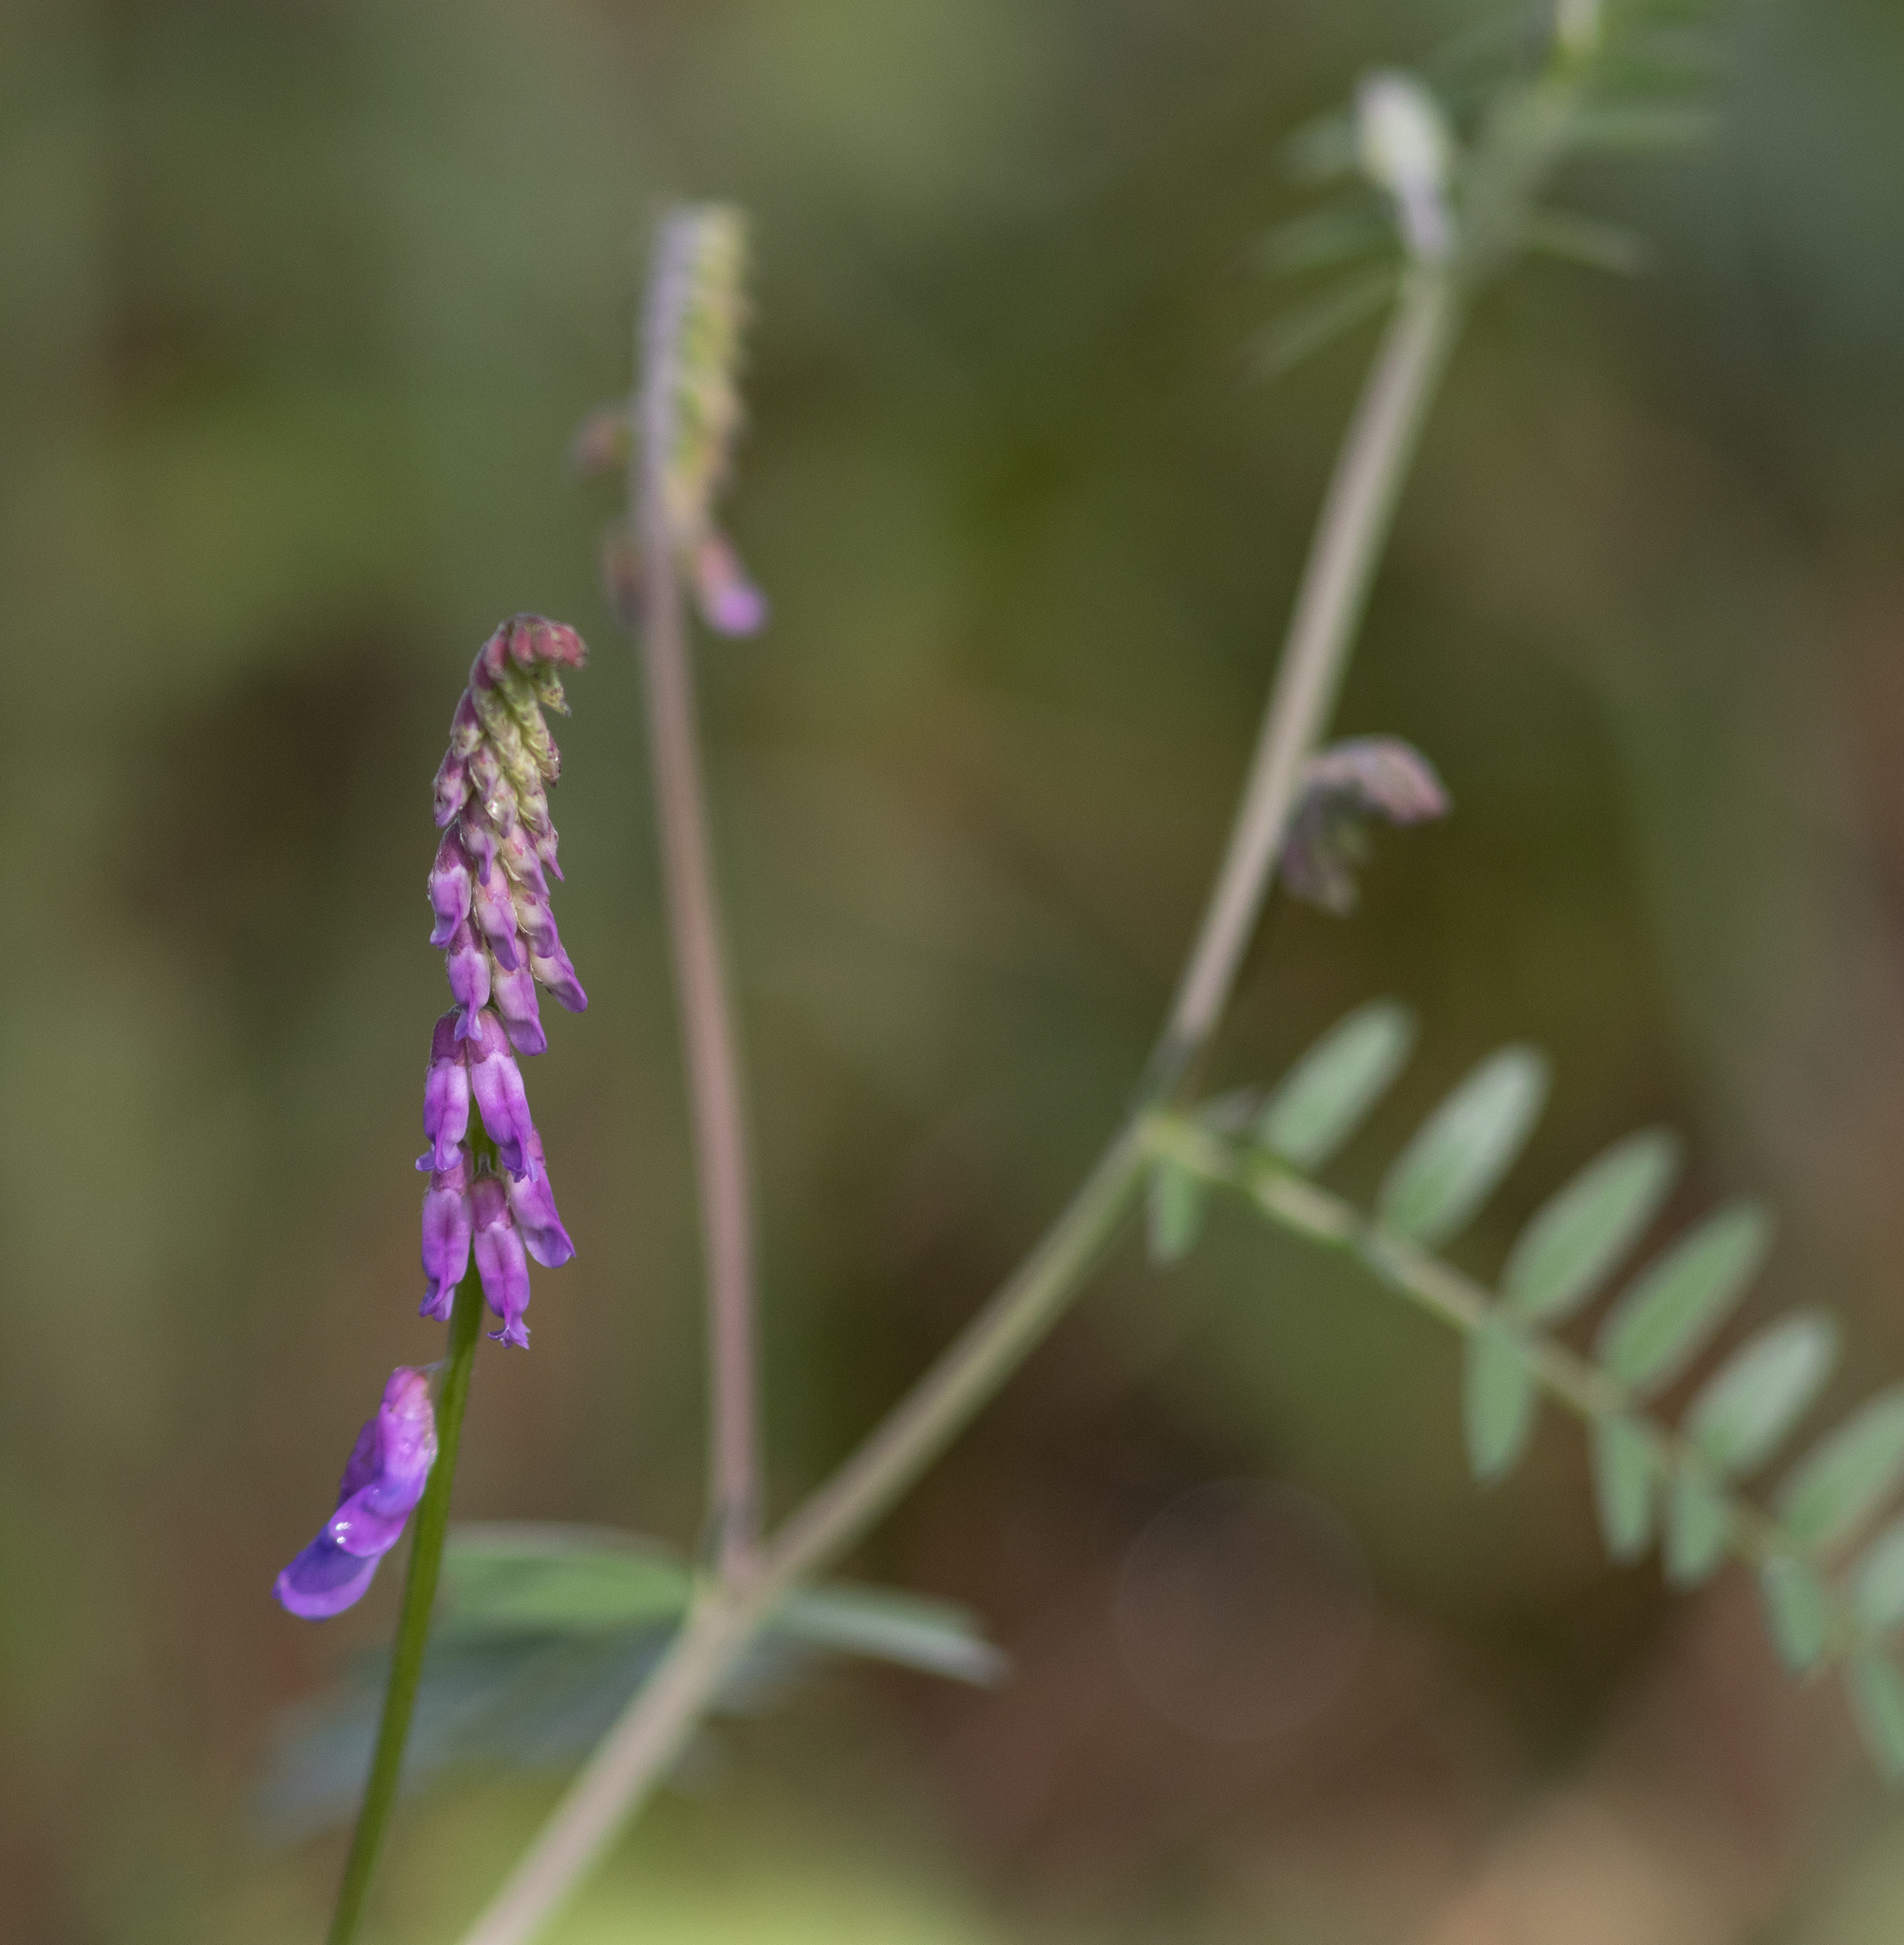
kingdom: Plantae
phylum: Tracheophyta
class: Magnoliopsida
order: Fabales
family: Fabaceae
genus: Vicia
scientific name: Vicia cracca
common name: Bird vetch
